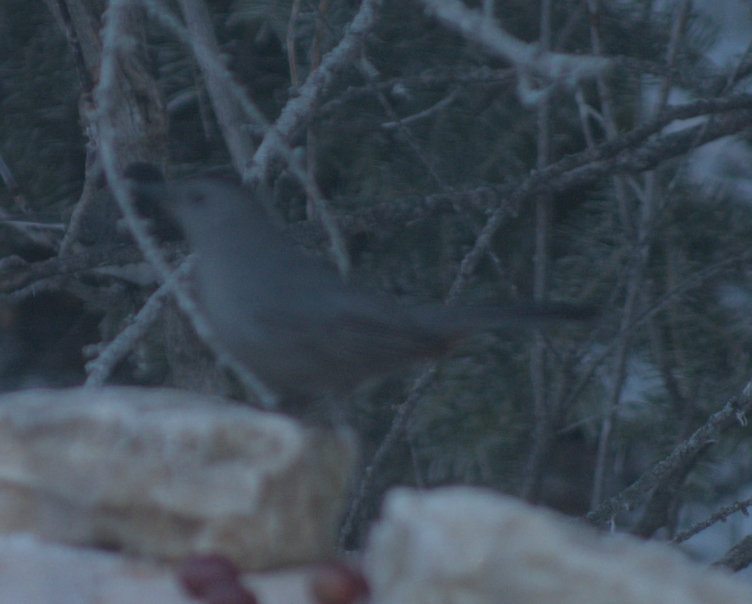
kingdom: Animalia
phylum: Chordata
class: Aves
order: Passeriformes
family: Mimidae
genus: Dumetella
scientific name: Dumetella carolinensis
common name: Gray catbird
